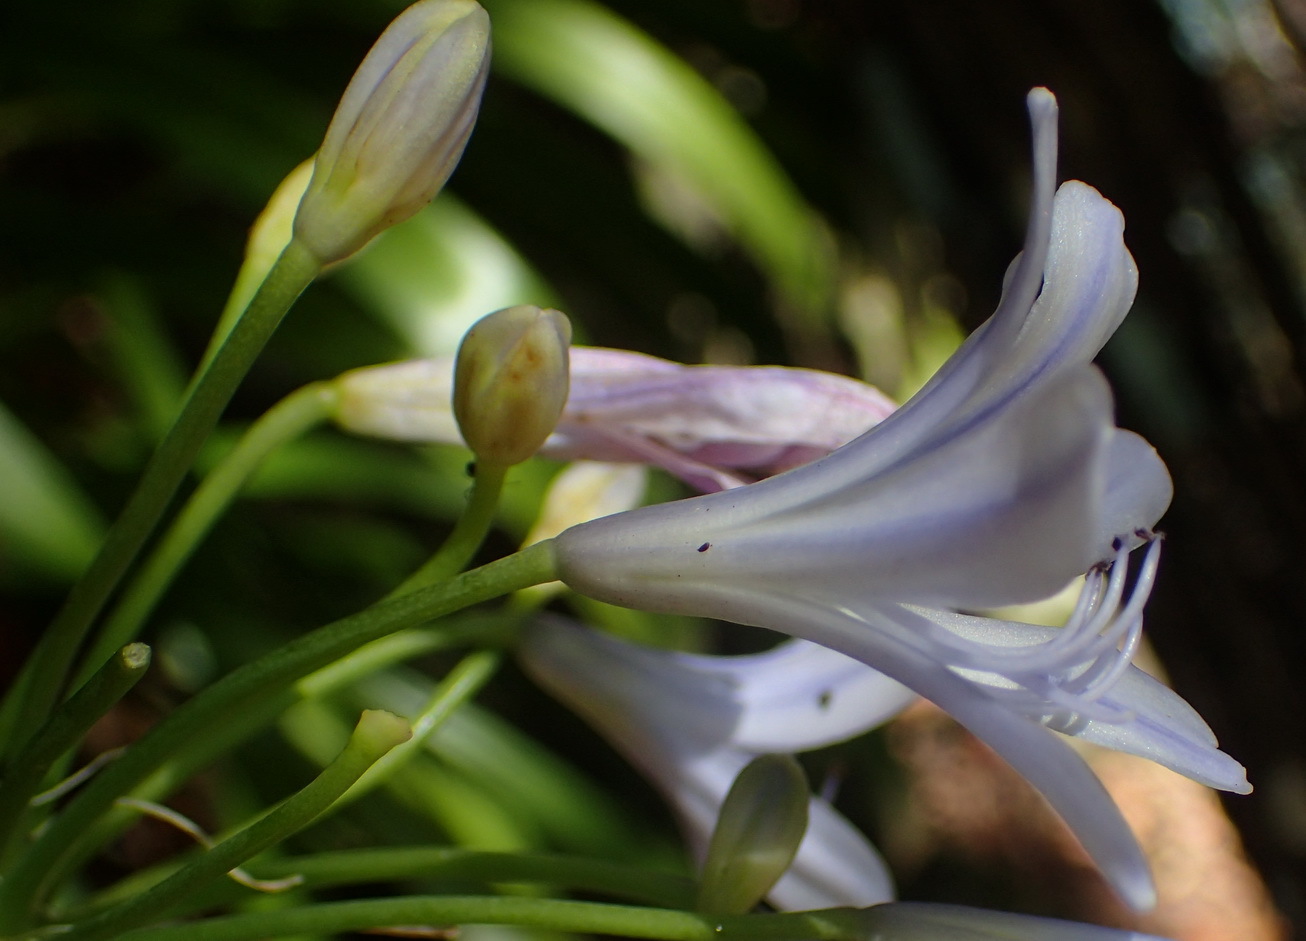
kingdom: Plantae
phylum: Tracheophyta
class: Liliopsida
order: Asparagales
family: Amaryllidaceae
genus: Agapanthus
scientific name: Agapanthus praecox
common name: African-lily
